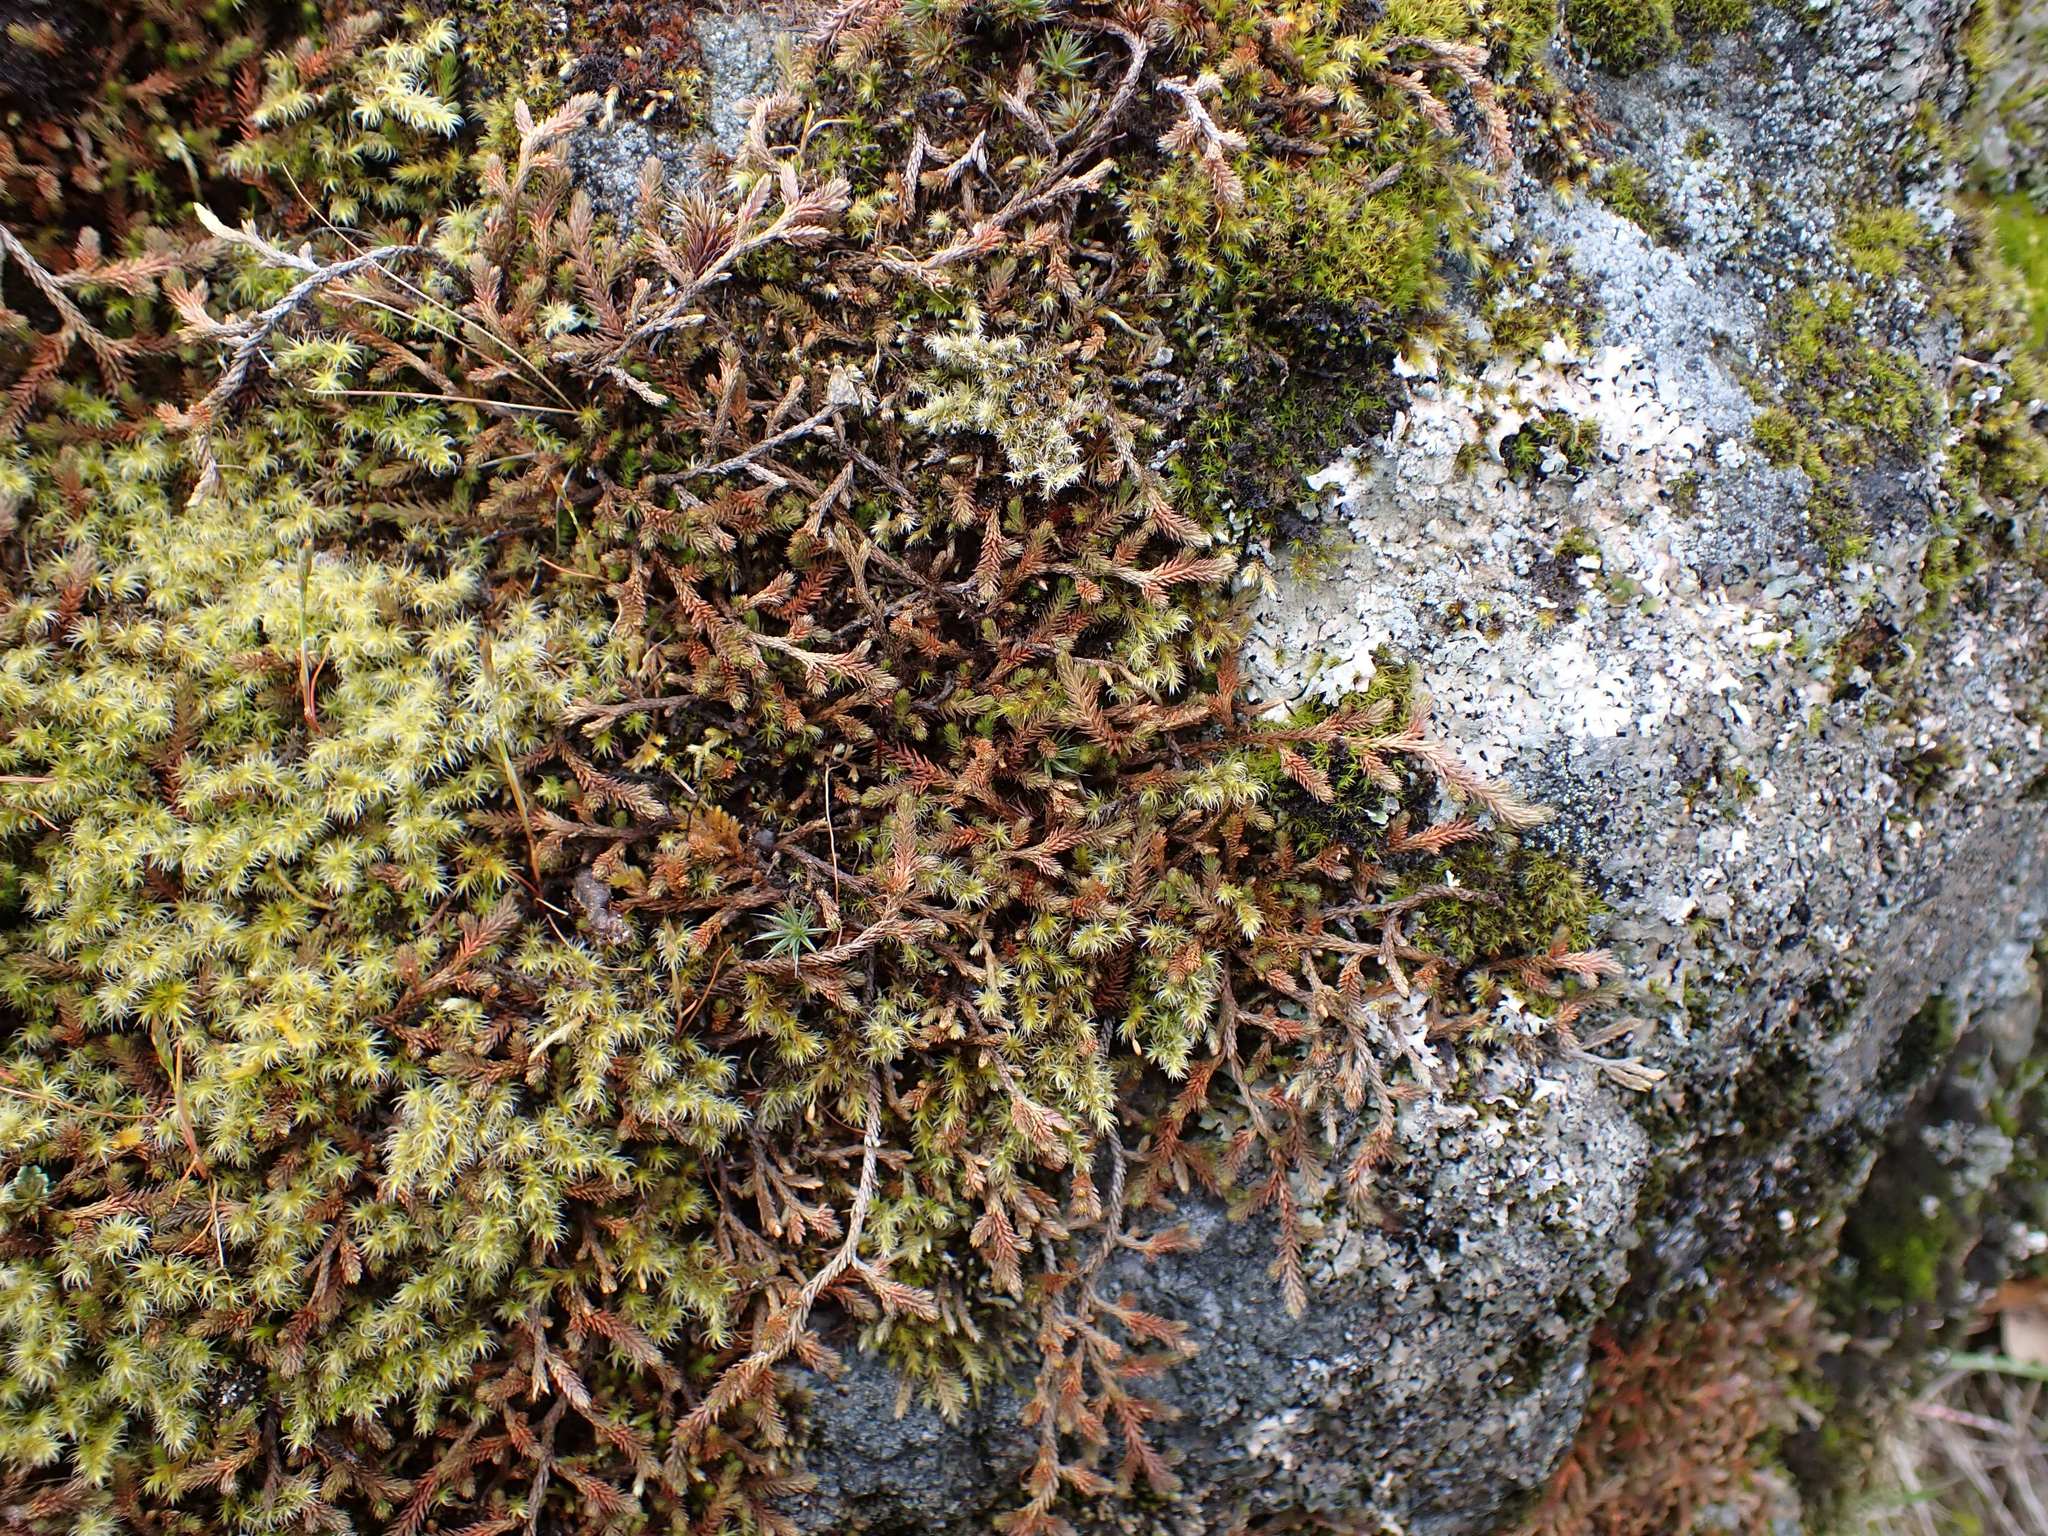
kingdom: Plantae
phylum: Tracheophyta
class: Lycopodiopsida
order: Selaginellales
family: Selaginellaceae
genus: Selaginella
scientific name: Selaginella wallacei
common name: Wallace's selaginella
